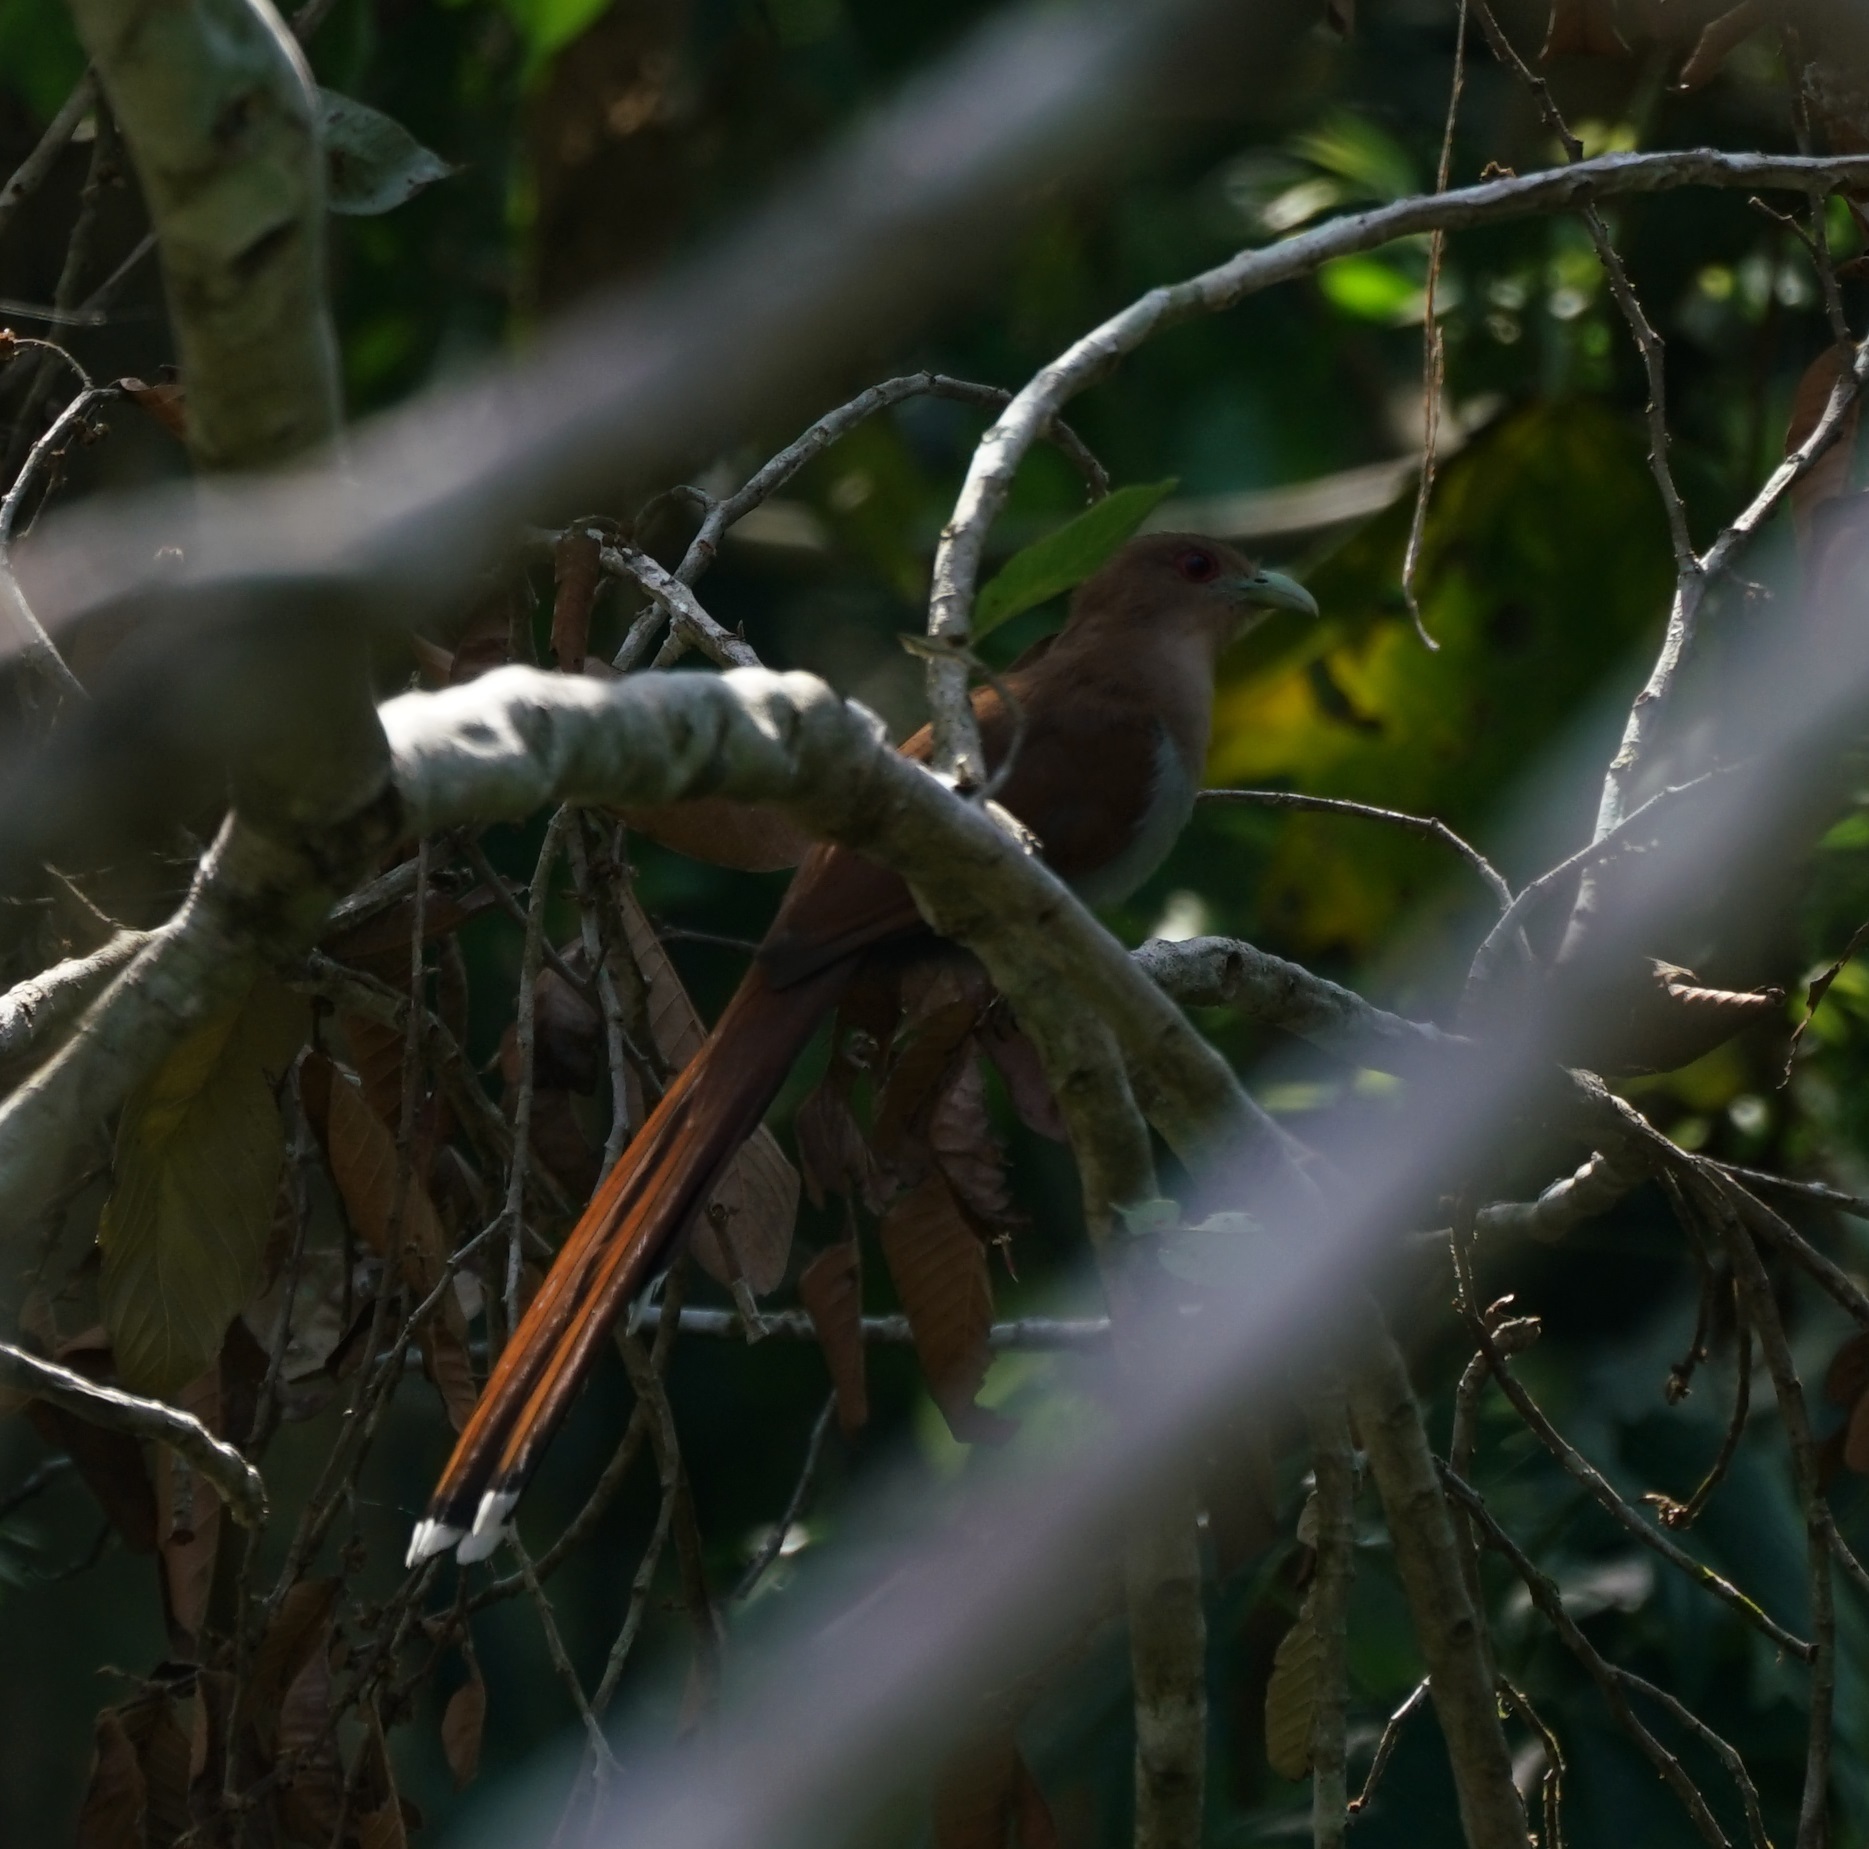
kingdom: Animalia
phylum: Chordata
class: Aves
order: Cuculiformes
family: Cuculidae
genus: Piaya
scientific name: Piaya cayana
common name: Squirrel cuckoo
